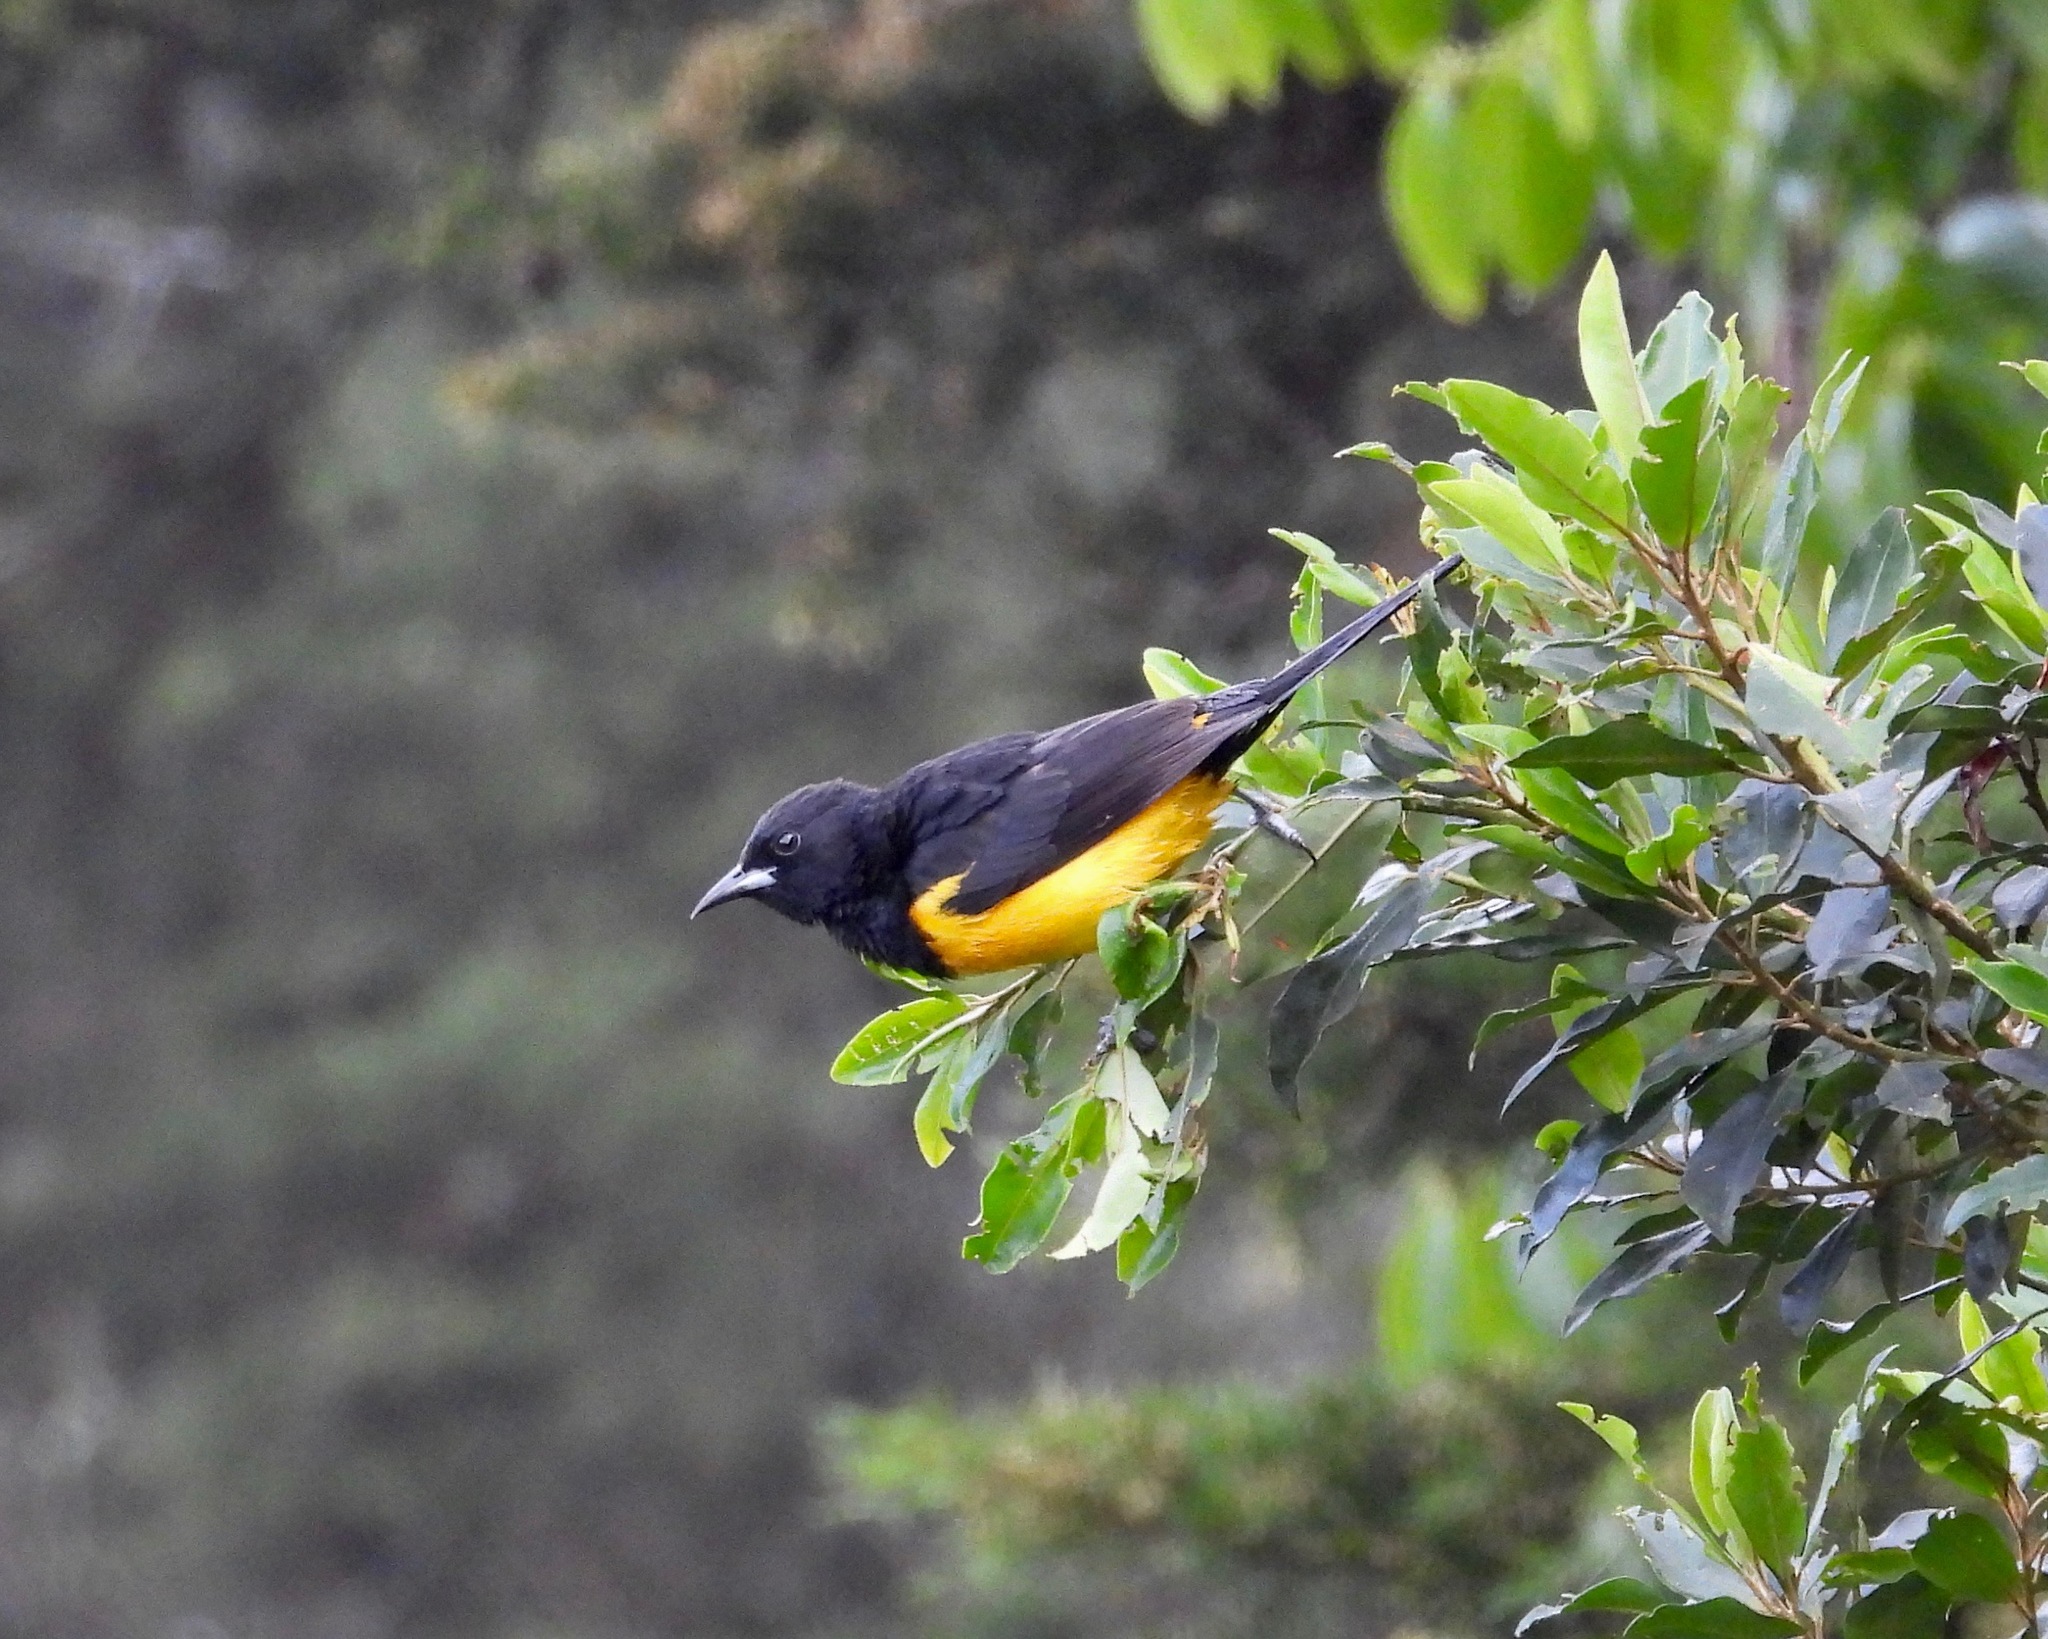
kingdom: Animalia
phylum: Chordata
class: Aves
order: Passeriformes
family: Icteridae
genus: Icterus
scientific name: Icterus wagleri
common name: Black-vented oriole
